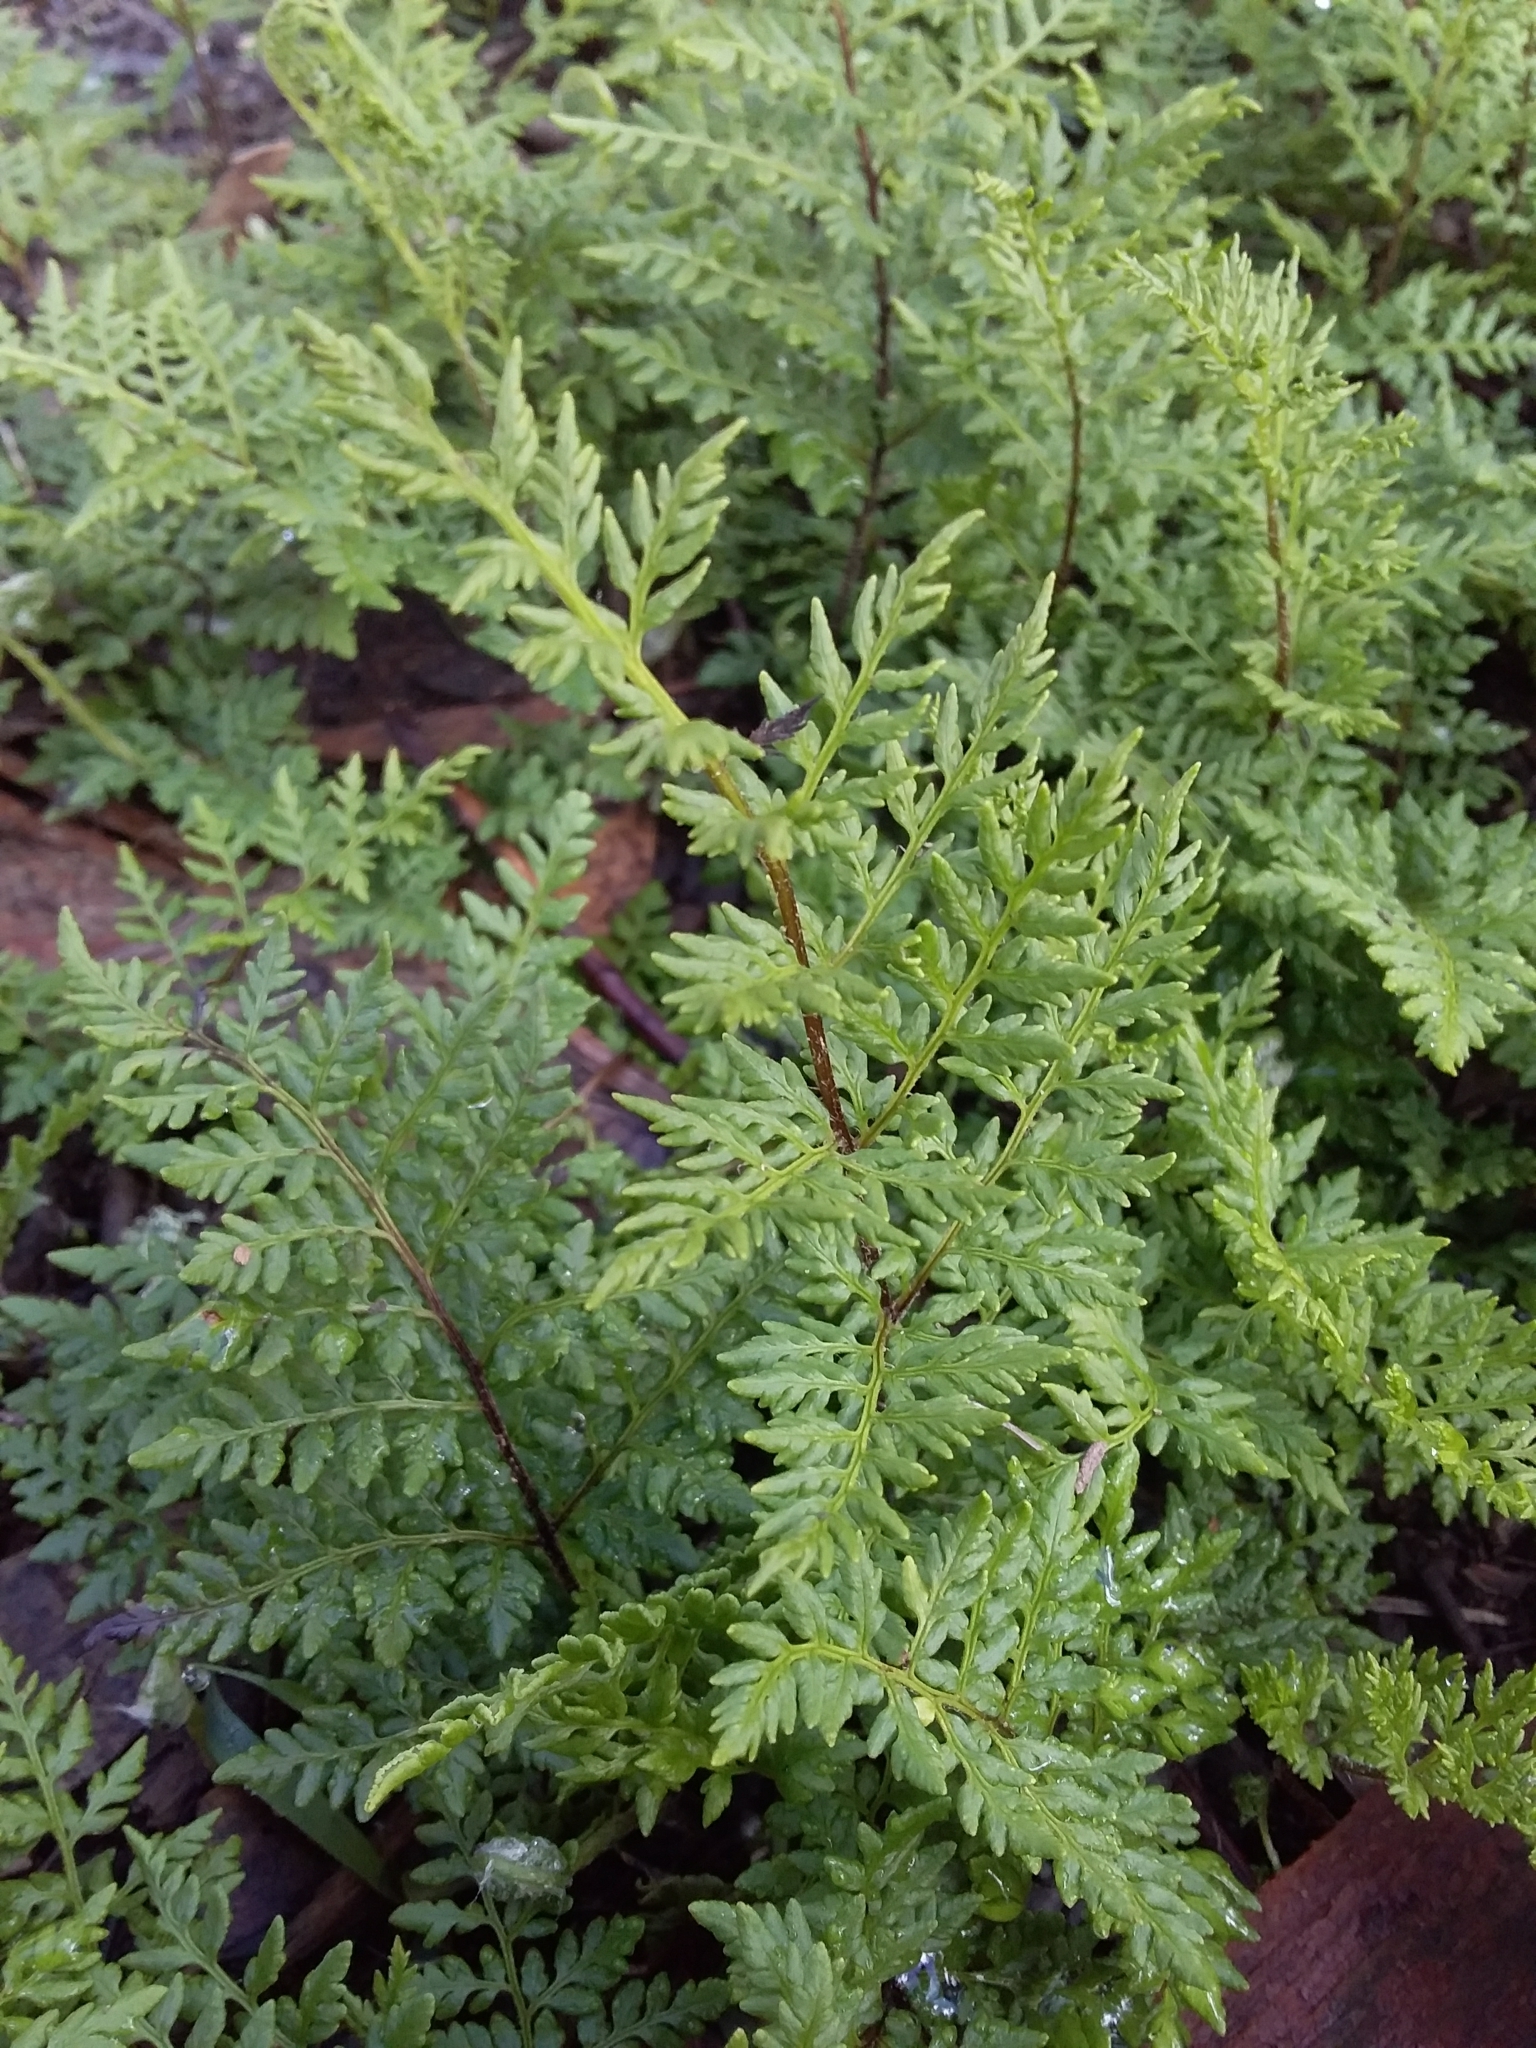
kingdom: Plantae
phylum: Tracheophyta
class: Polypodiopsida
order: Polypodiales
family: Pteridaceae
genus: Cheilanthes
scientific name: Cheilanthes austrotenuifolia
